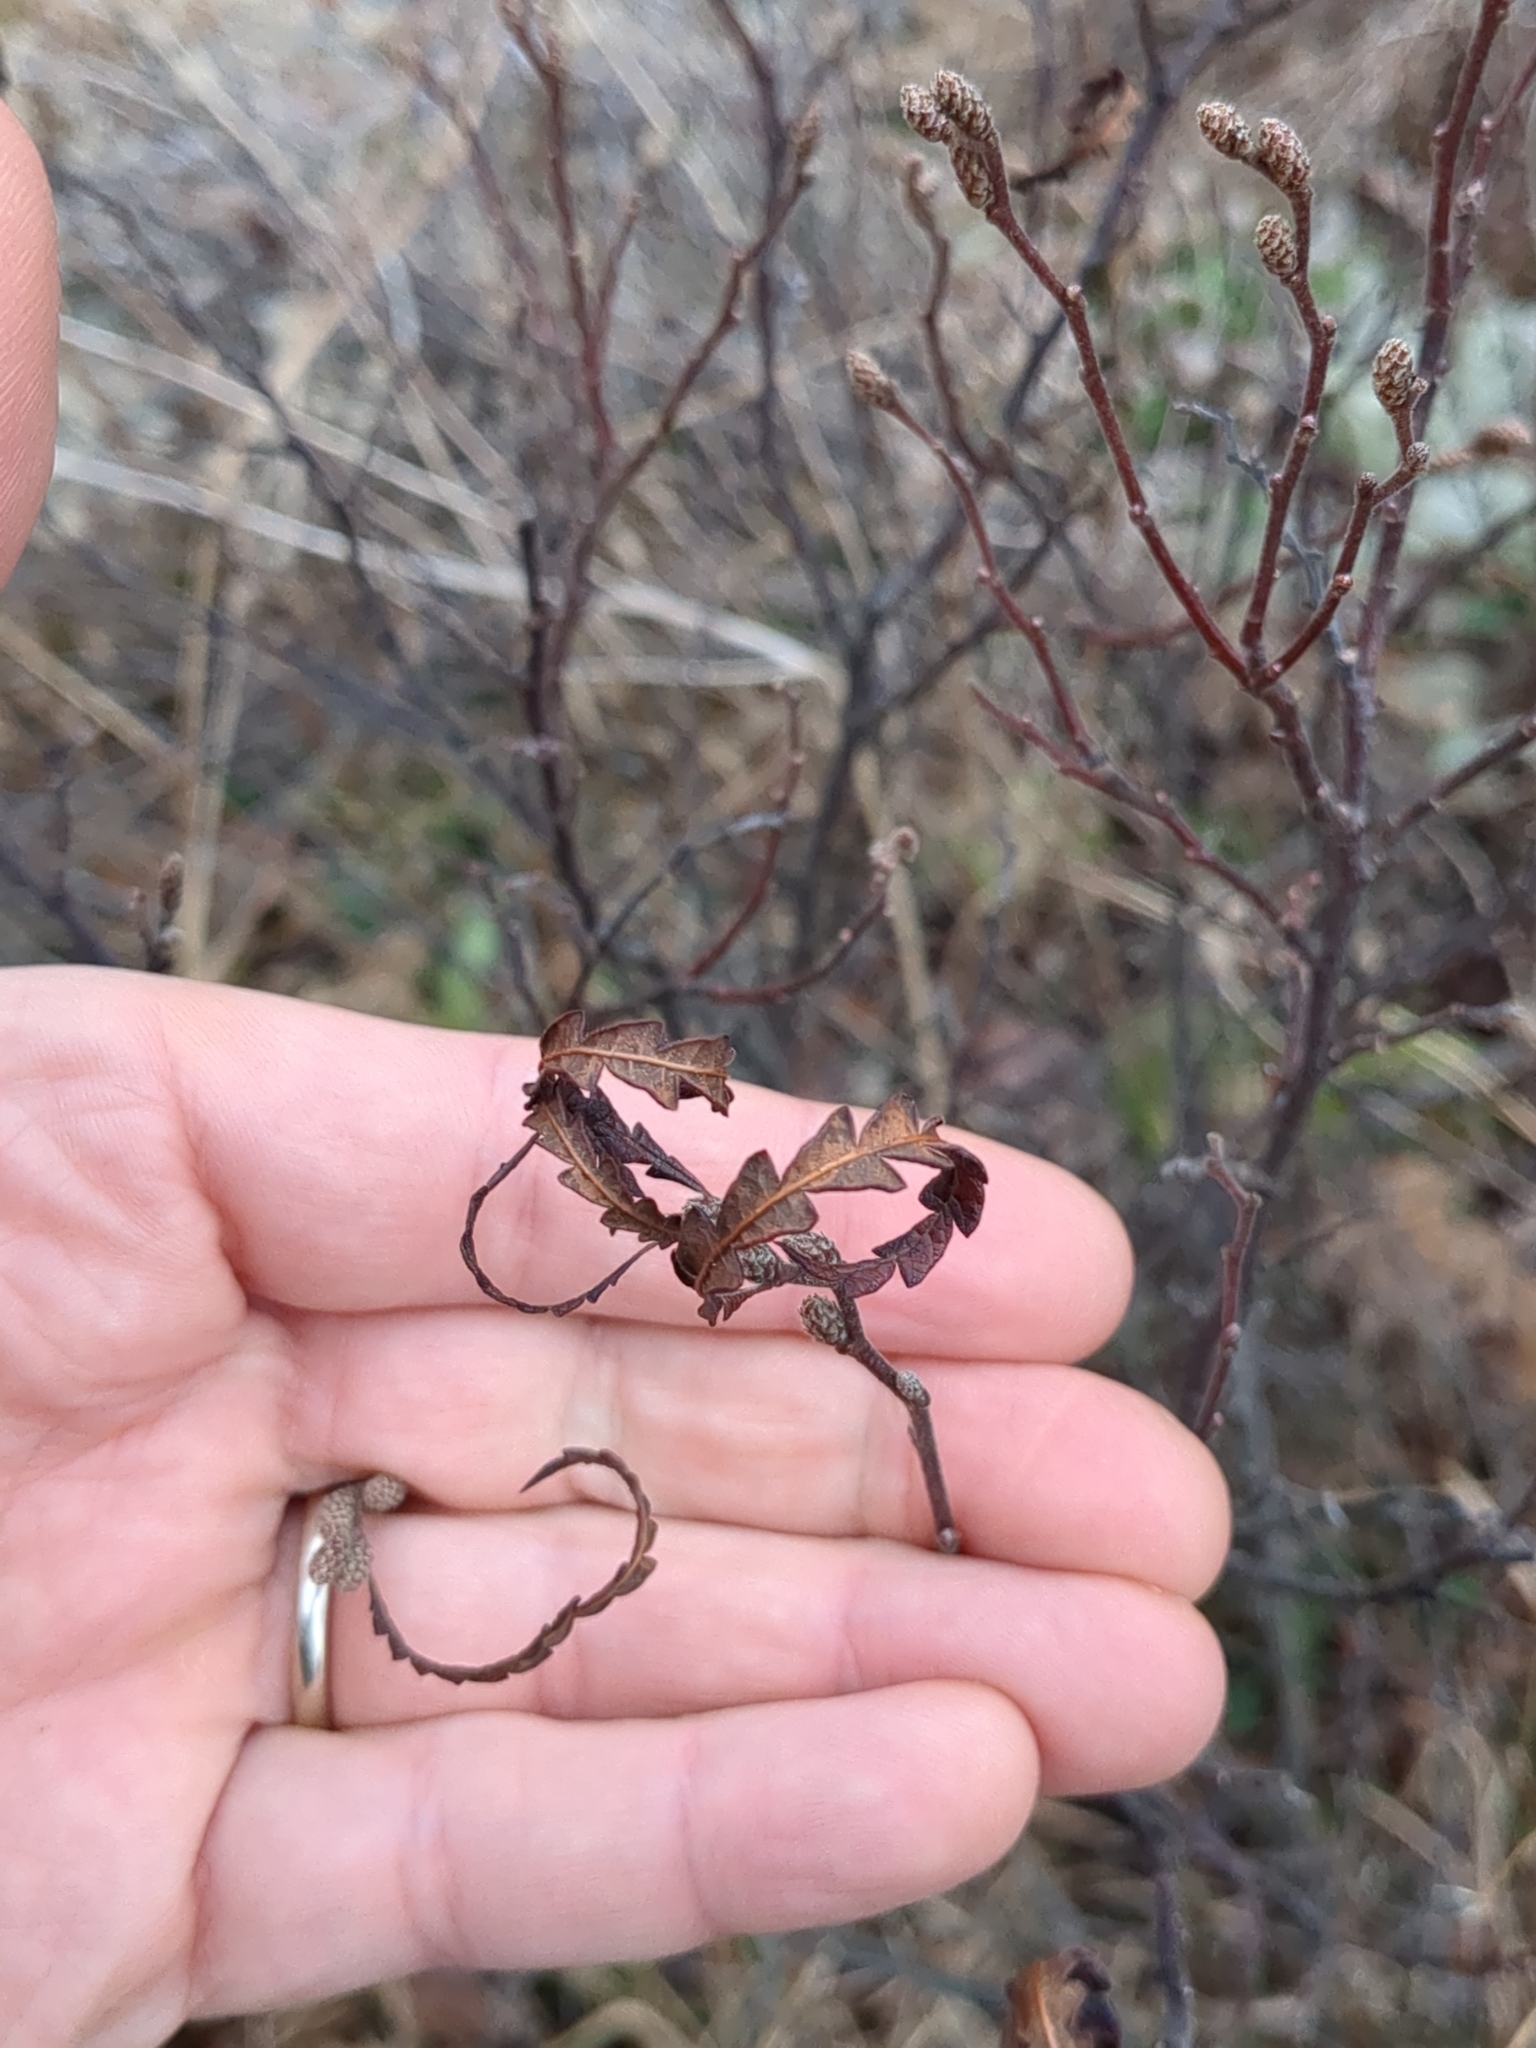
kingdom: Plantae
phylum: Tracheophyta
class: Magnoliopsida
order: Fagales
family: Myricaceae
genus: Comptonia
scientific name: Comptonia peregrina
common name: Sweet-fern
